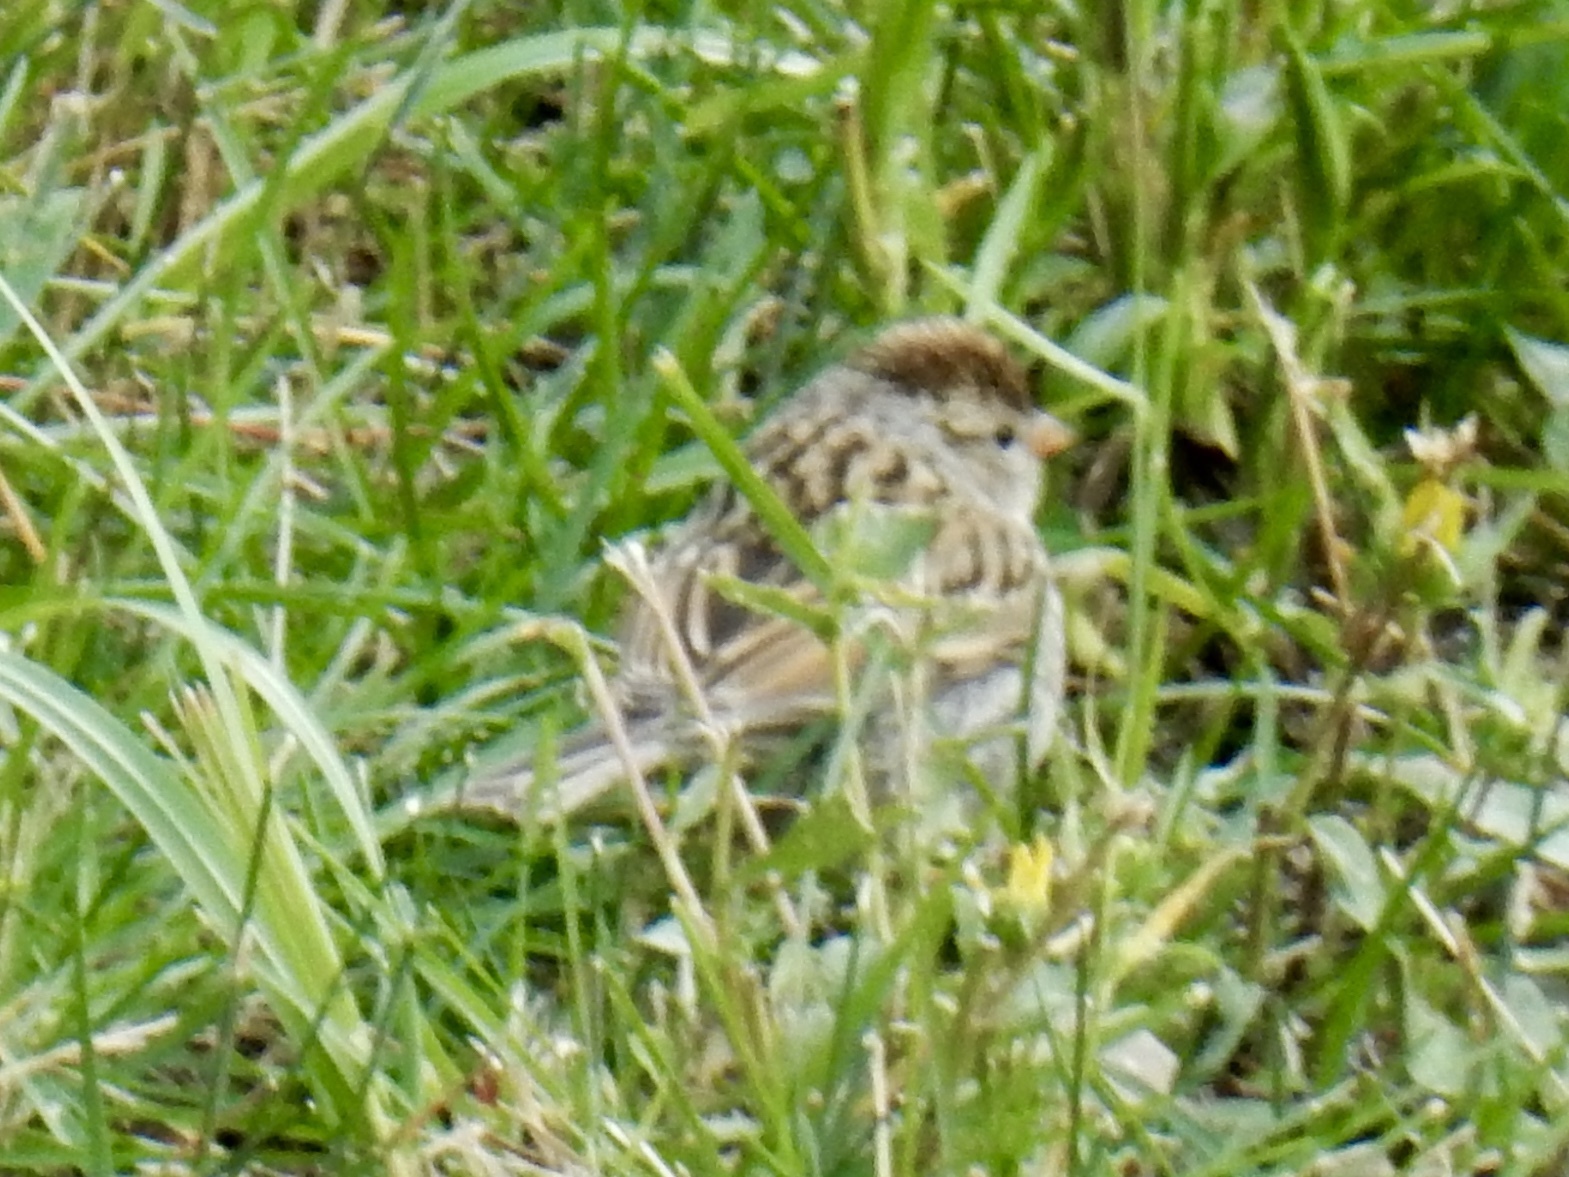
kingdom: Animalia
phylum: Chordata
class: Aves
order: Passeriformes
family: Passerellidae
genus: Spizella
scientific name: Spizella passerina
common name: Chipping sparrow
